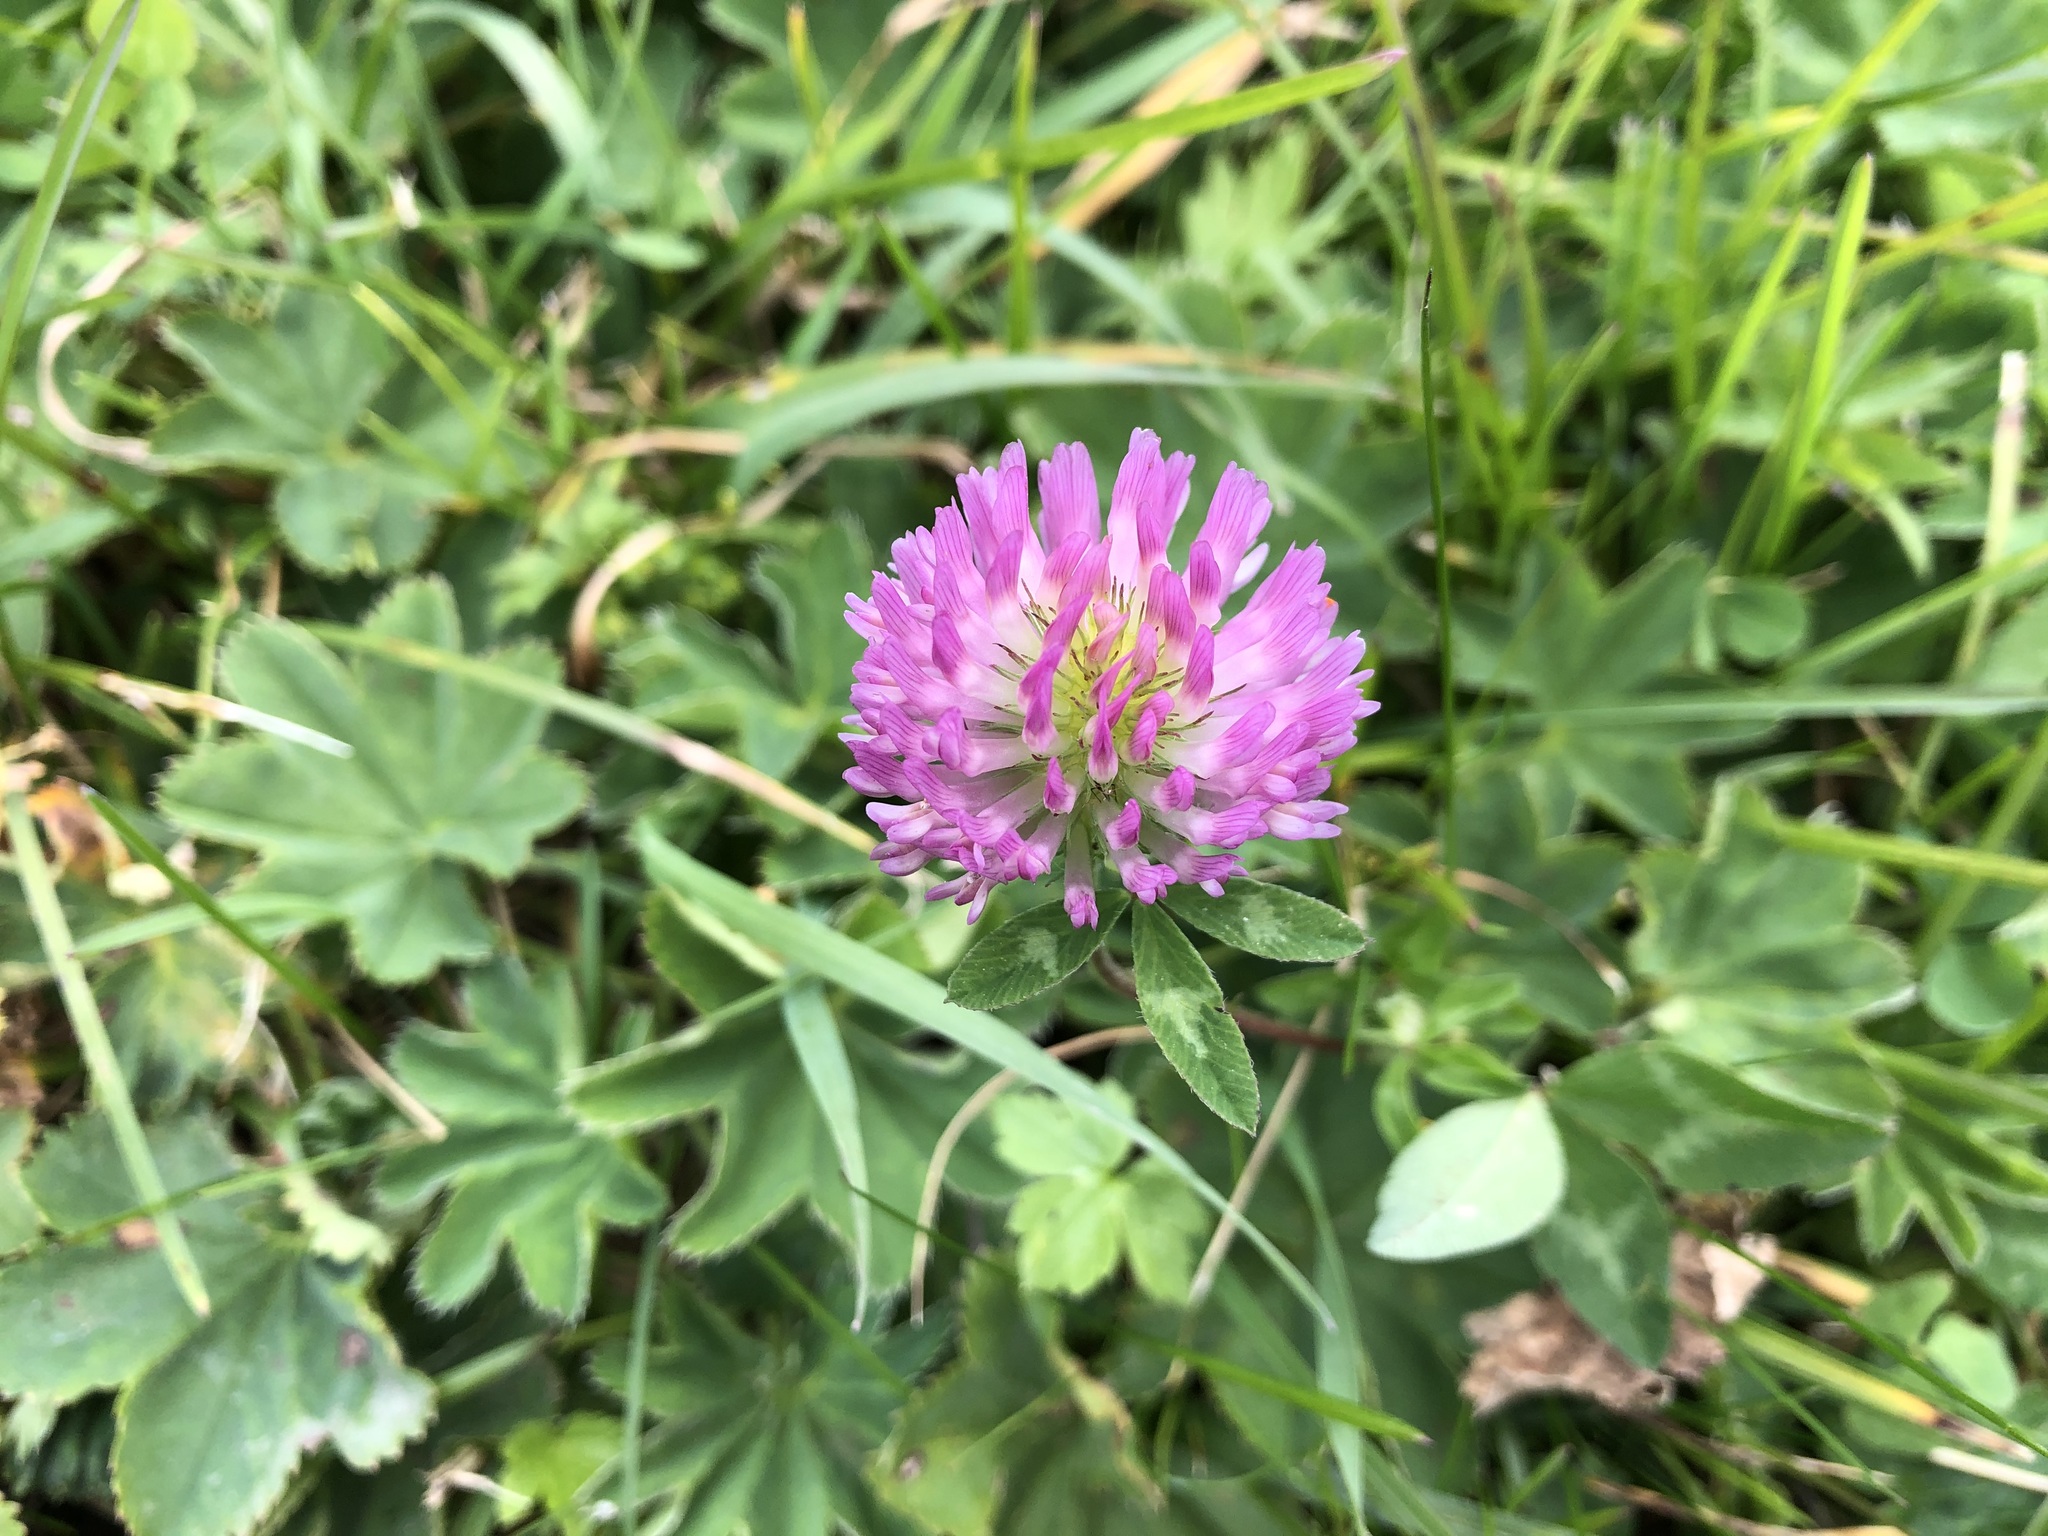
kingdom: Plantae
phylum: Tracheophyta
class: Magnoliopsida
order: Fabales
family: Fabaceae
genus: Trifolium
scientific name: Trifolium pratense
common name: Red clover
